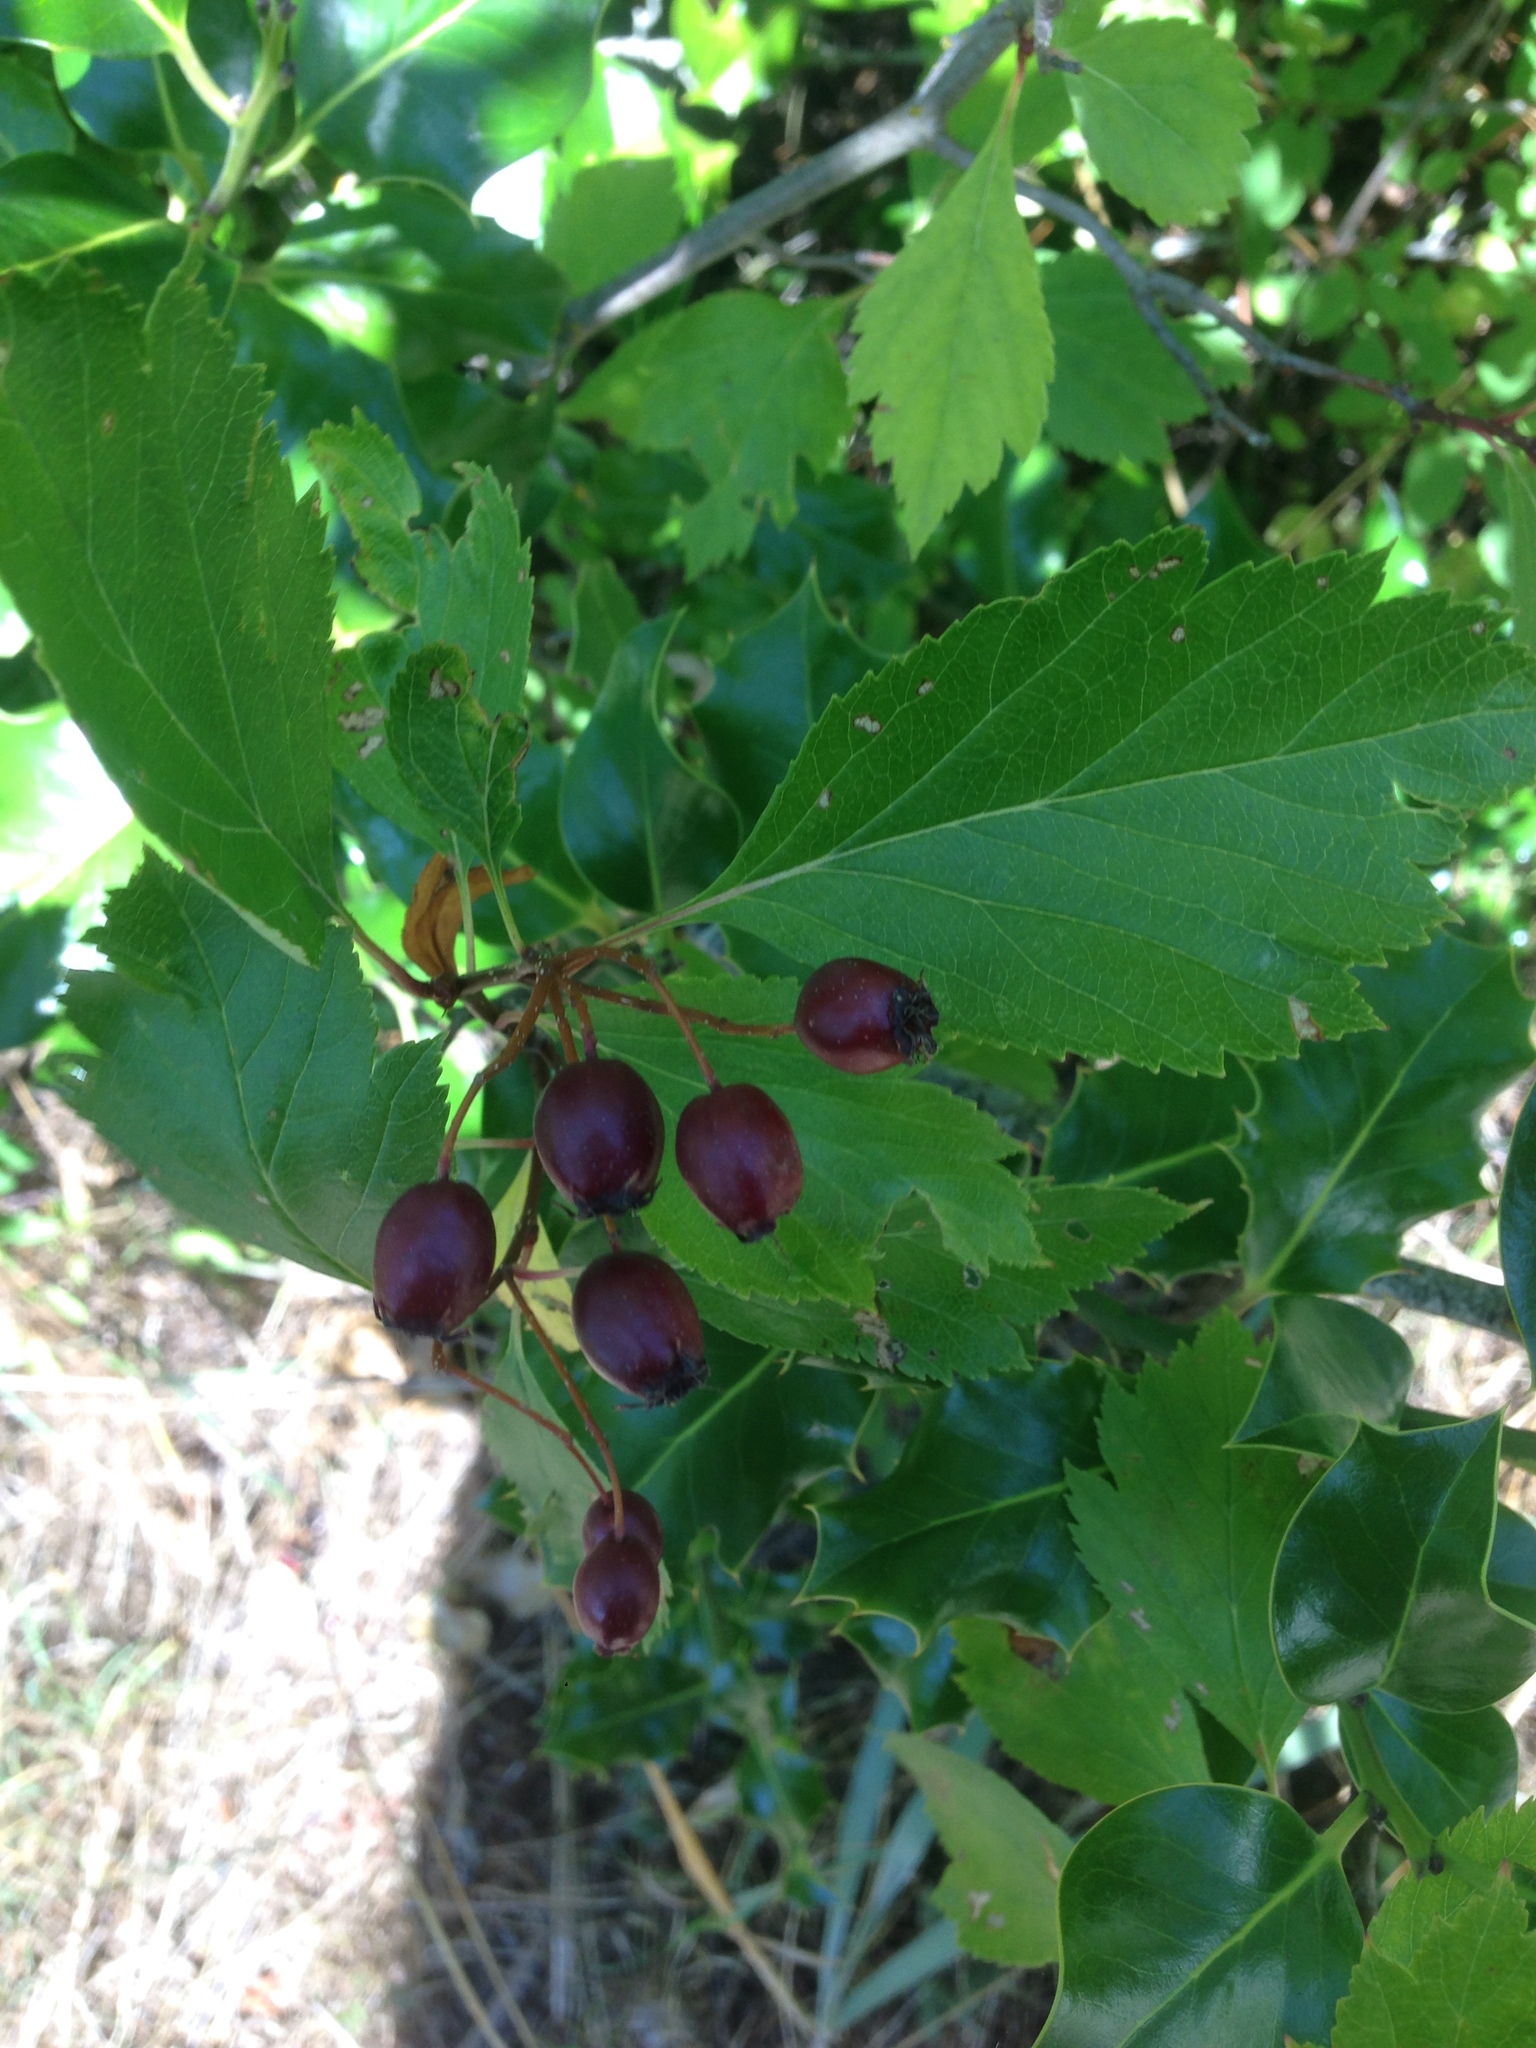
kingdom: Plantae
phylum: Tracheophyta
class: Magnoliopsida
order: Rosales
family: Rosaceae
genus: Crataegus
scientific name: Crataegus douglasii
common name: Black hawthorn
